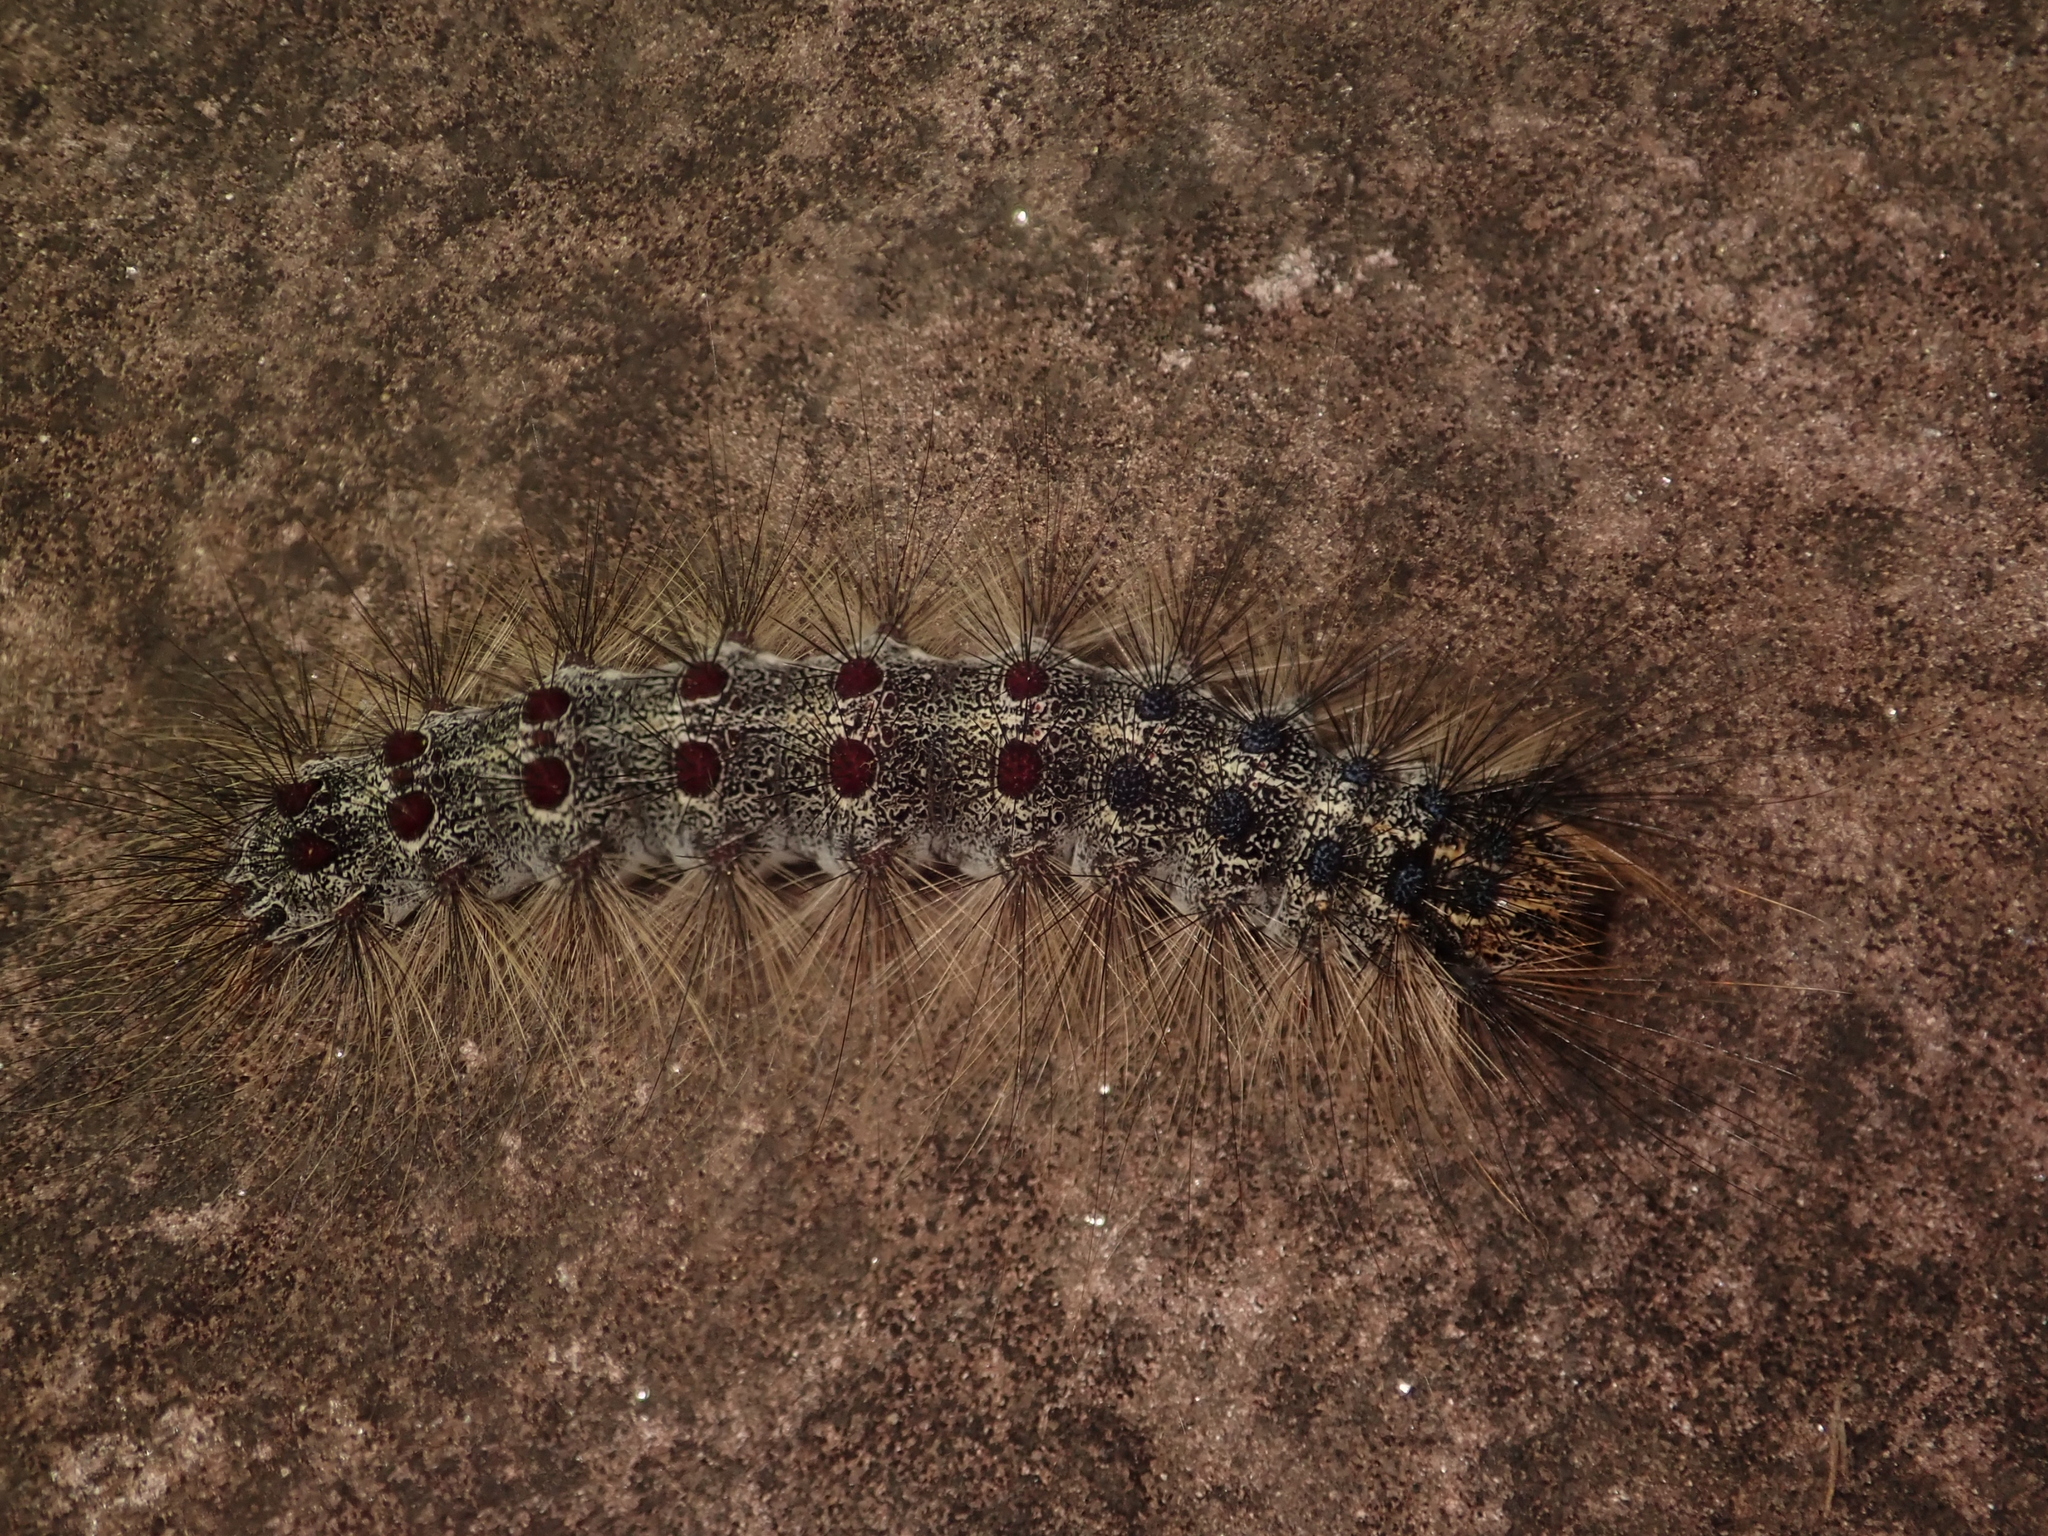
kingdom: Animalia
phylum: Arthropoda
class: Insecta
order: Lepidoptera
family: Erebidae
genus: Lymantria
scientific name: Lymantria dispar
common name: Gypsy moth
